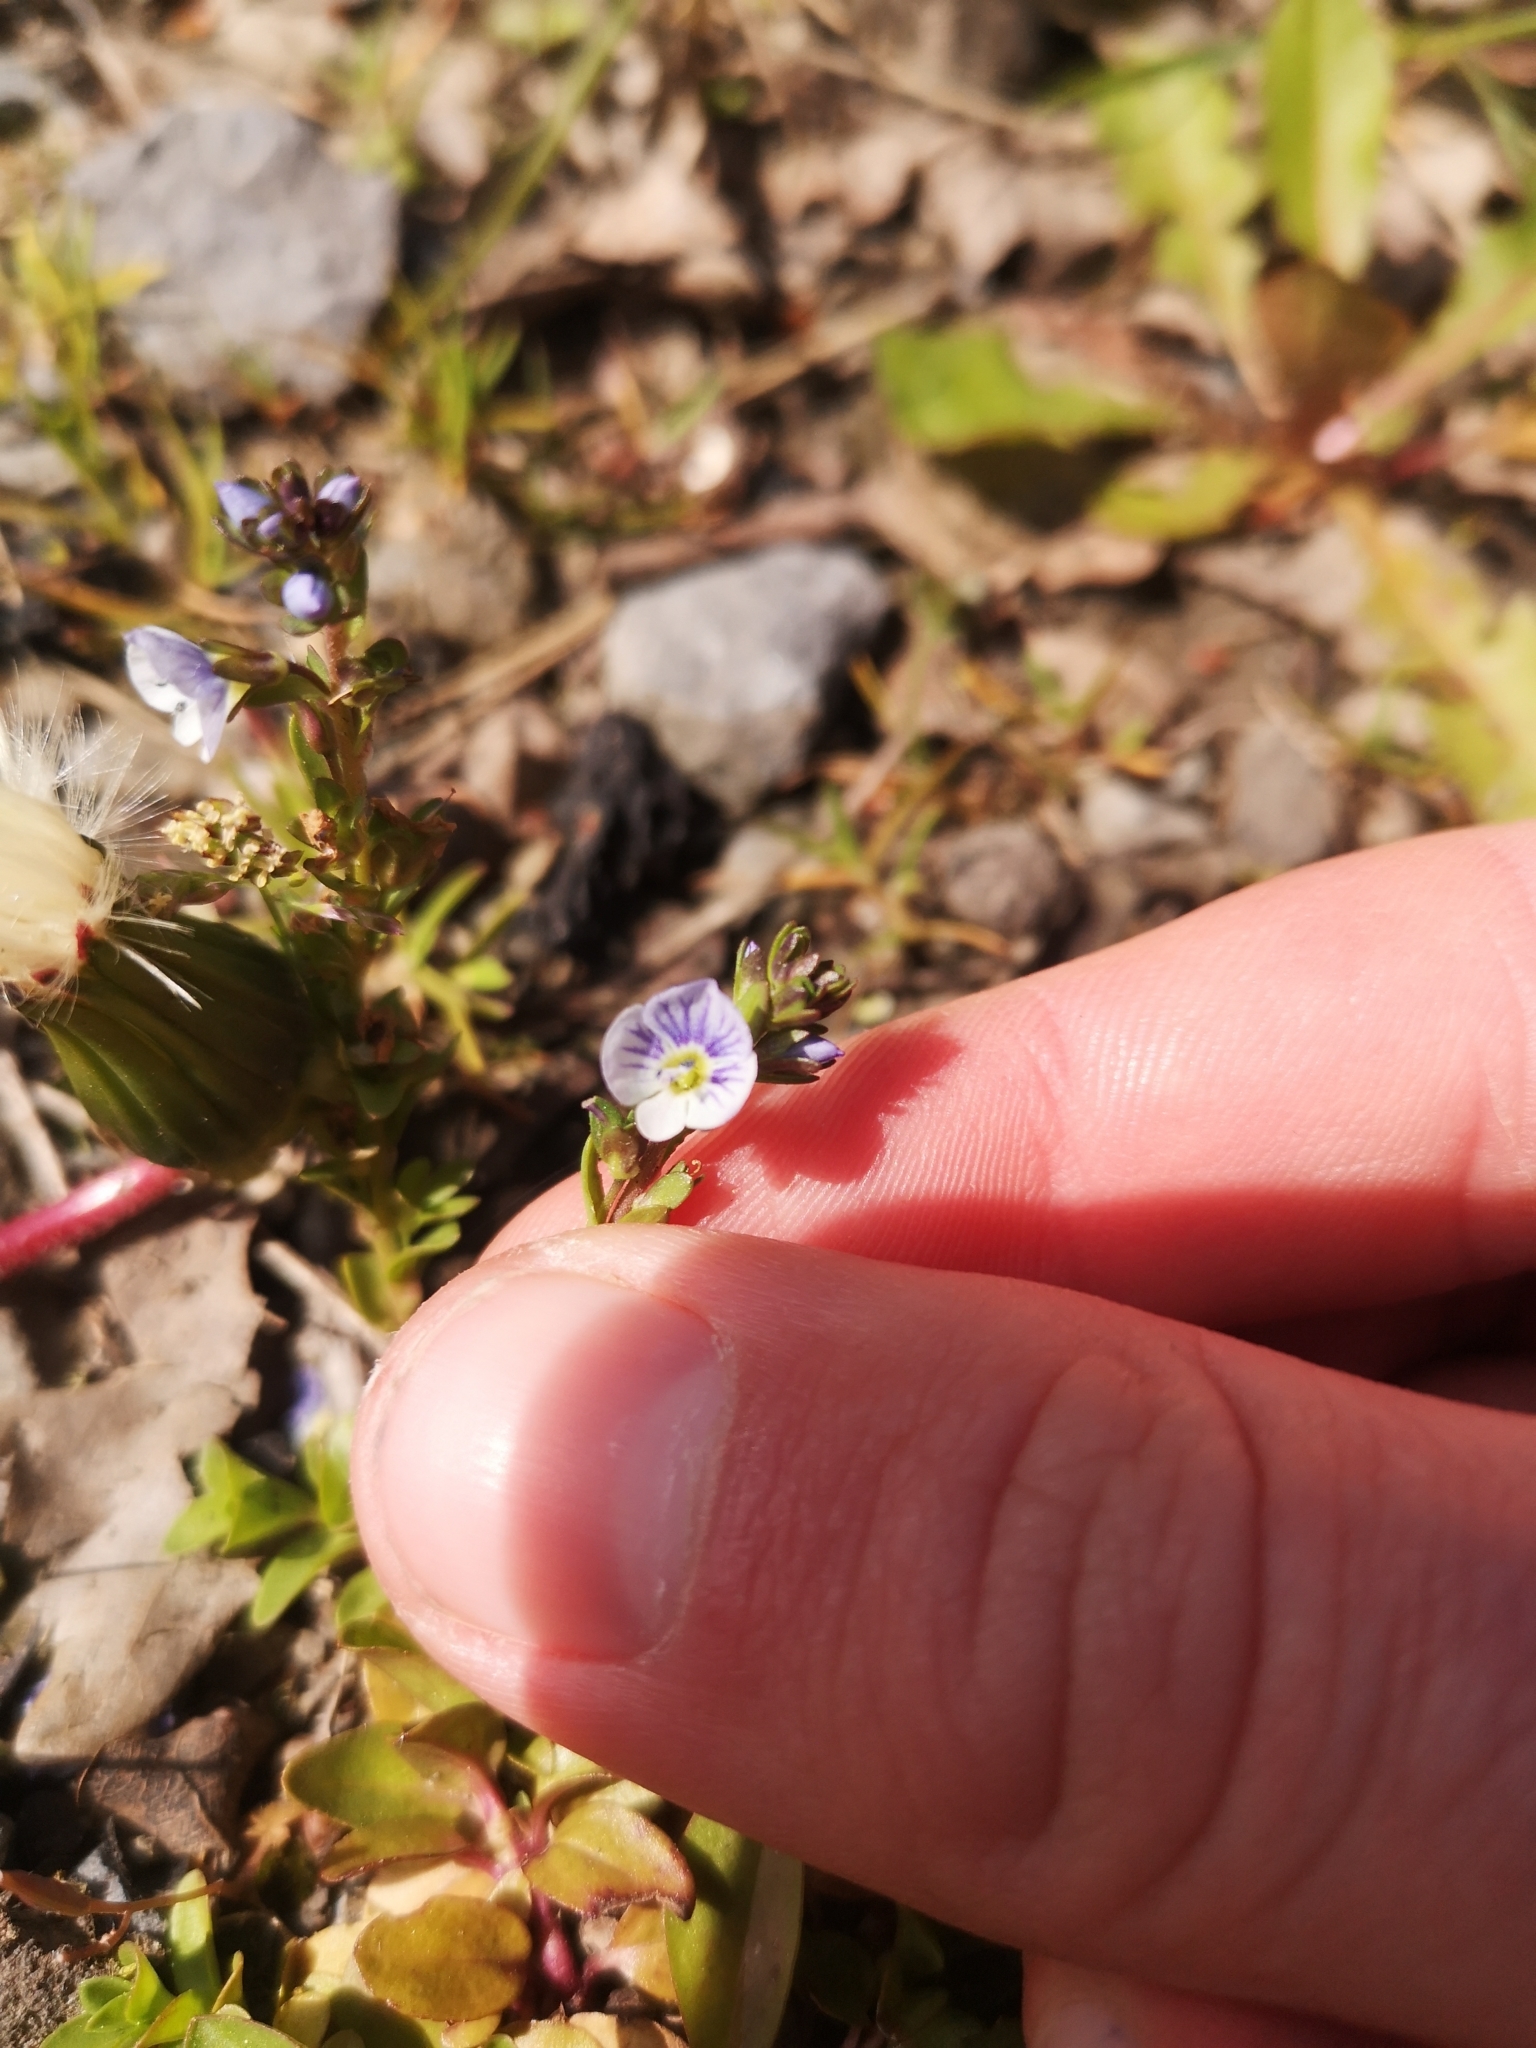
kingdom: Plantae
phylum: Tracheophyta
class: Magnoliopsida
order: Lamiales
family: Plantaginaceae
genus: Veronica
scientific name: Veronica serpyllifolia
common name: Thyme-leaved speedwell
